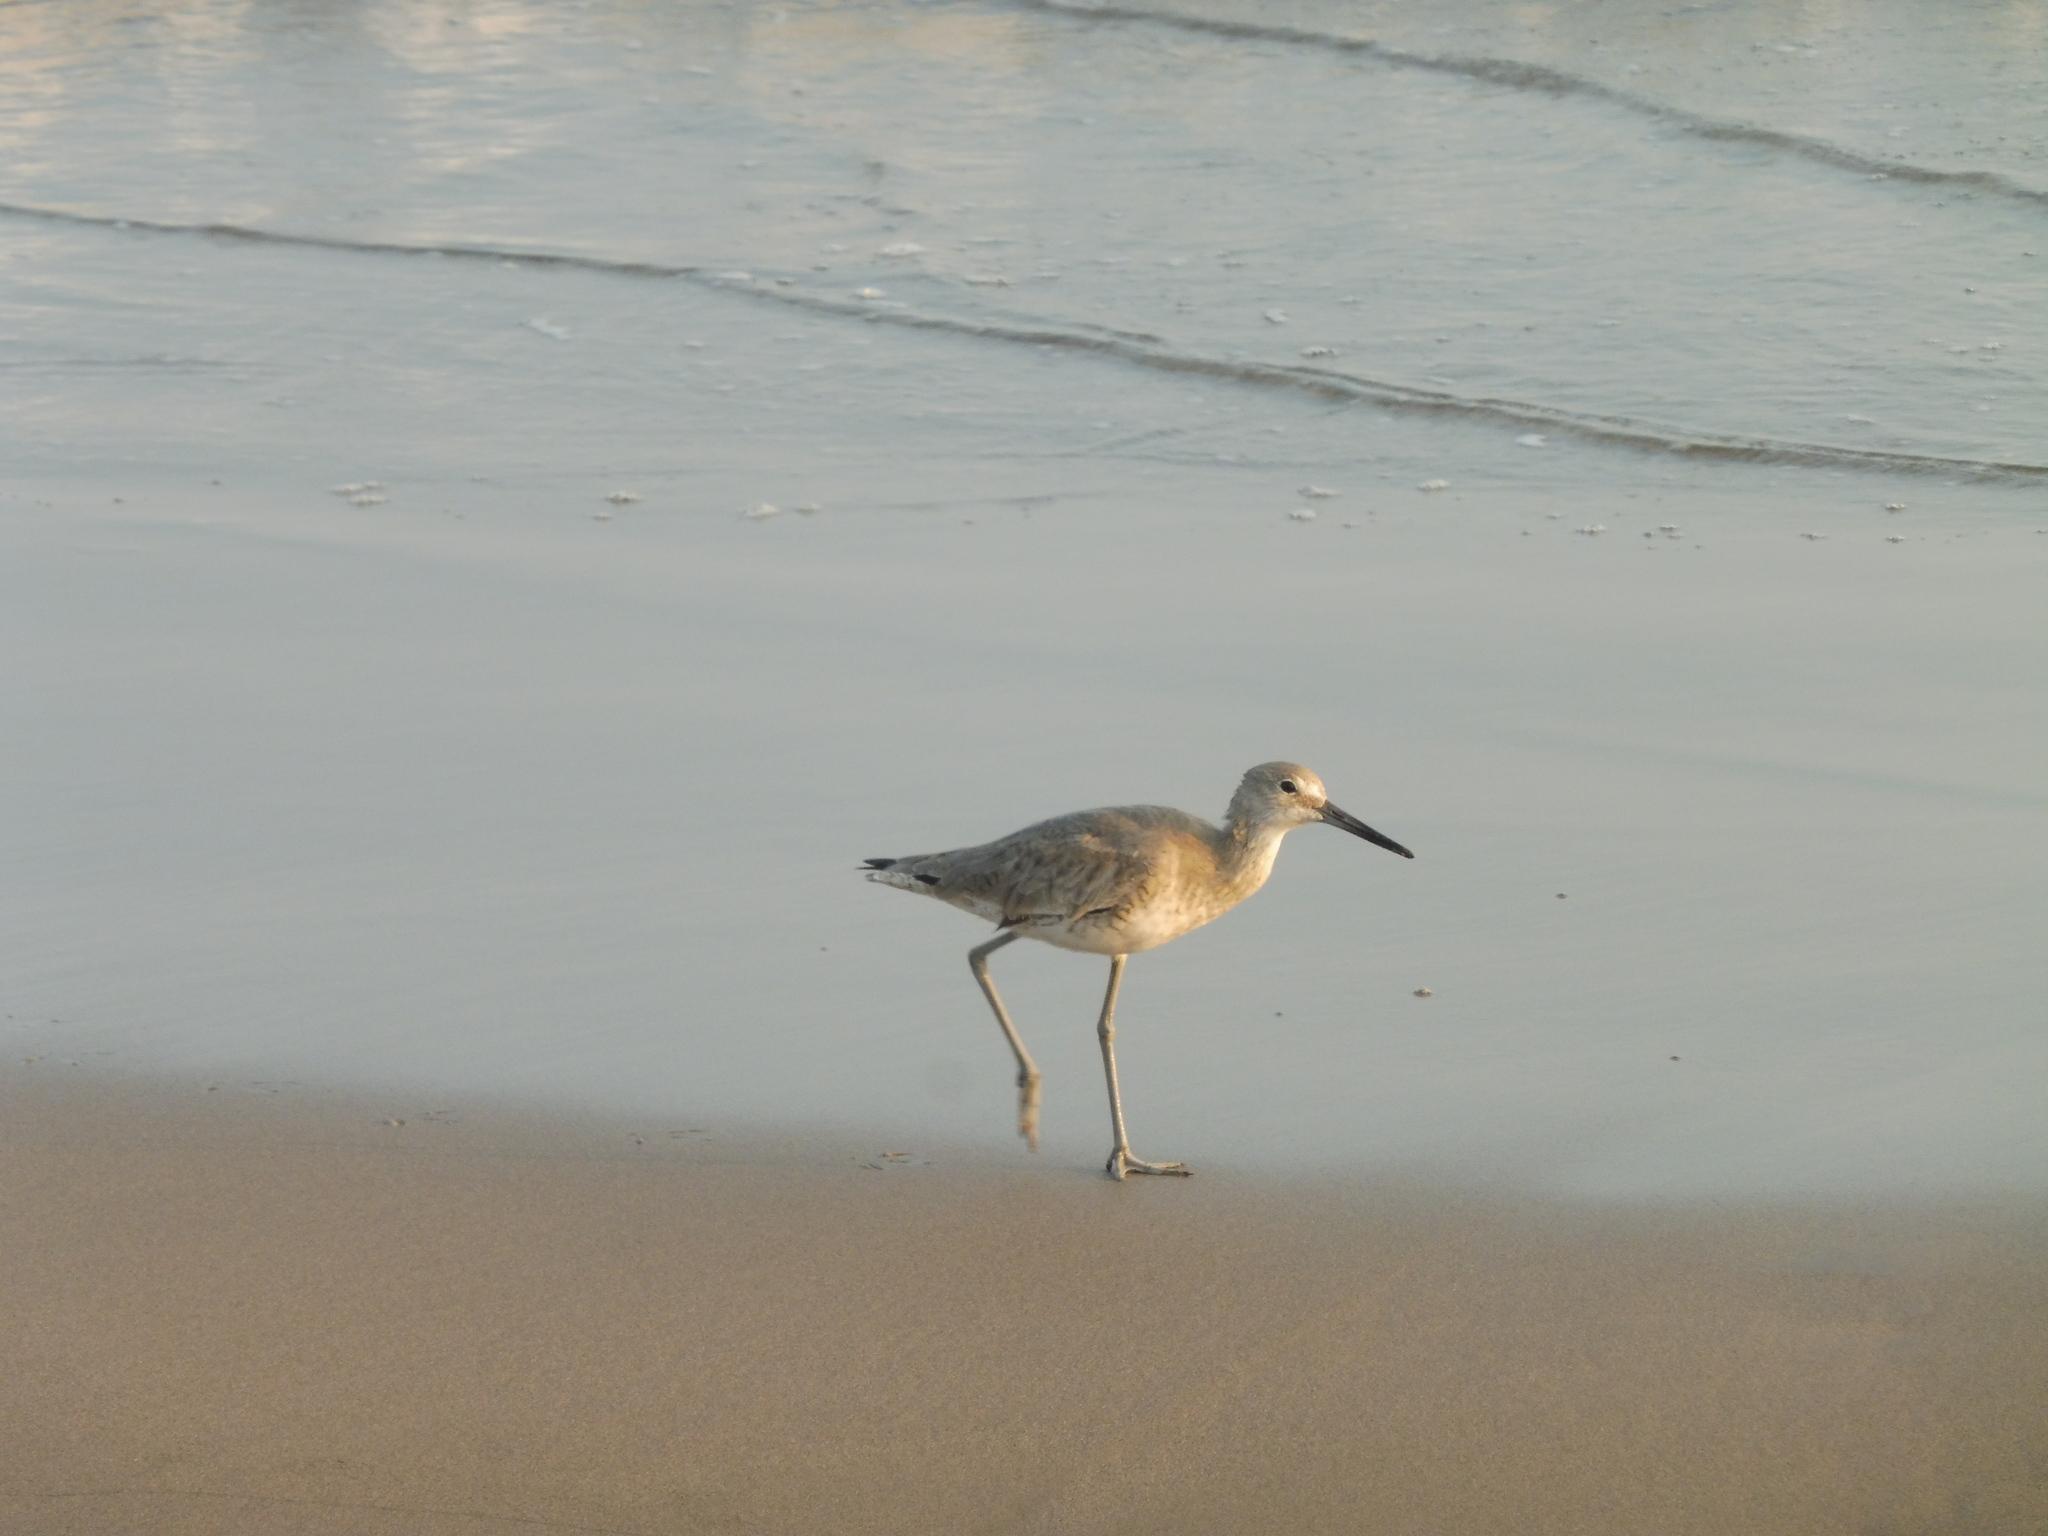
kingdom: Animalia
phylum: Chordata
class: Aves
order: Charadriiformes
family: Scolopacidae
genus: Tringa
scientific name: Tringa semipalmata
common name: Willet
